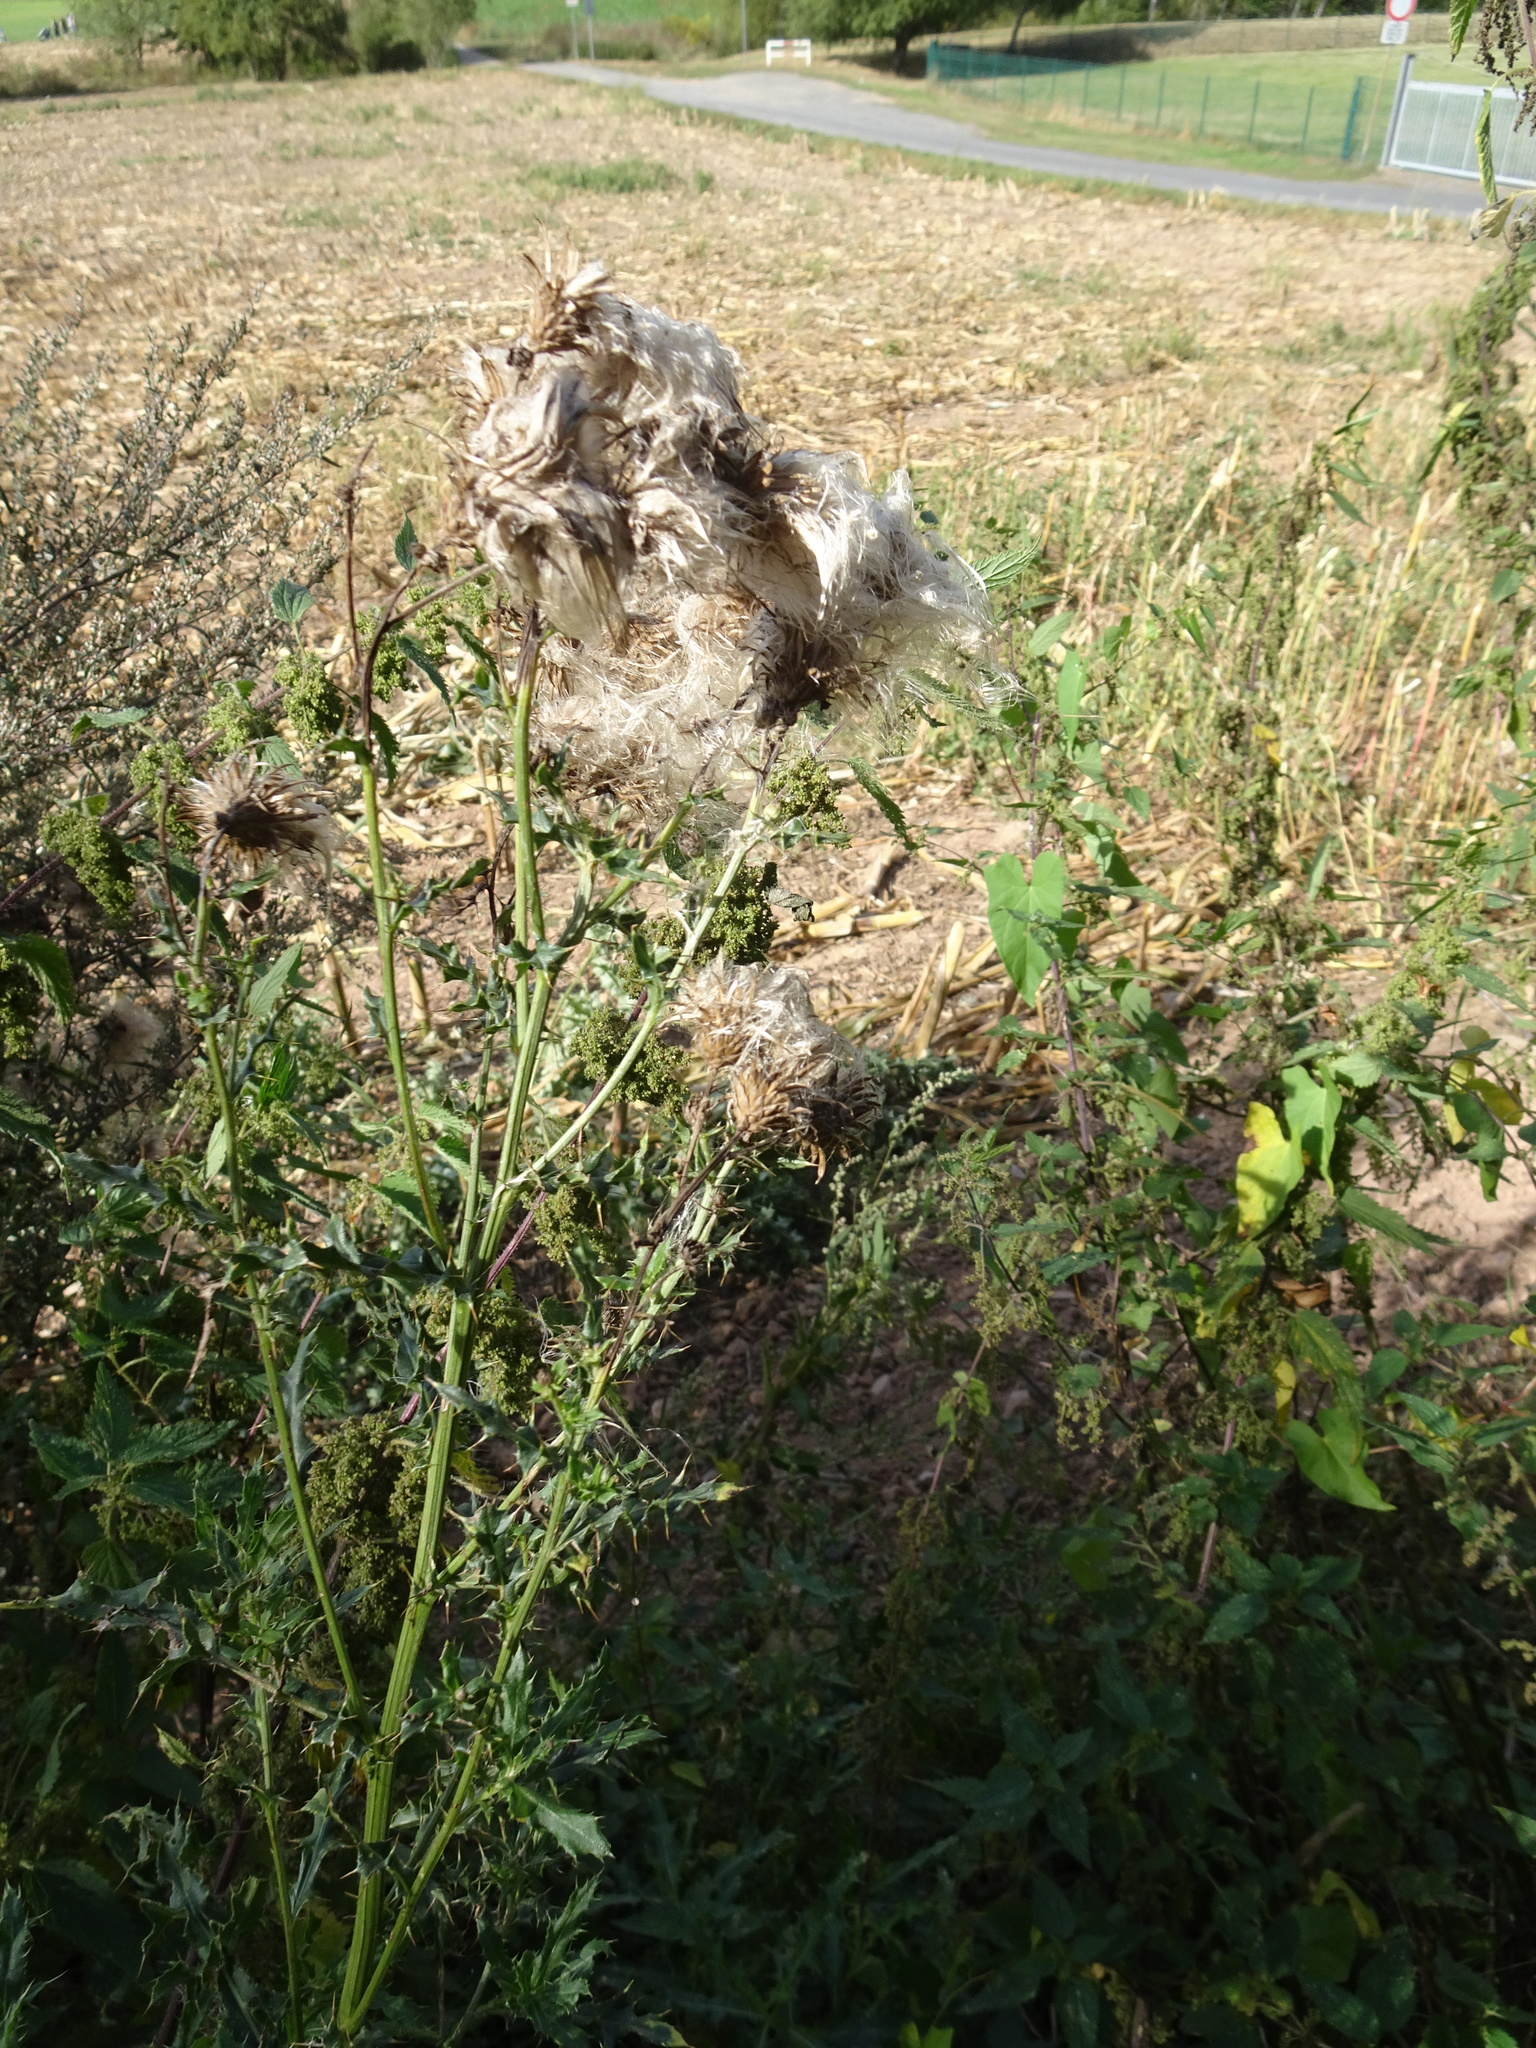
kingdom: Plantae
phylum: Tracheophyta
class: Magnoliopsida
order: Asterales
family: Asteraceae
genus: Cirsium
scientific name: Cirsium arvense
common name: Creeping thistle
